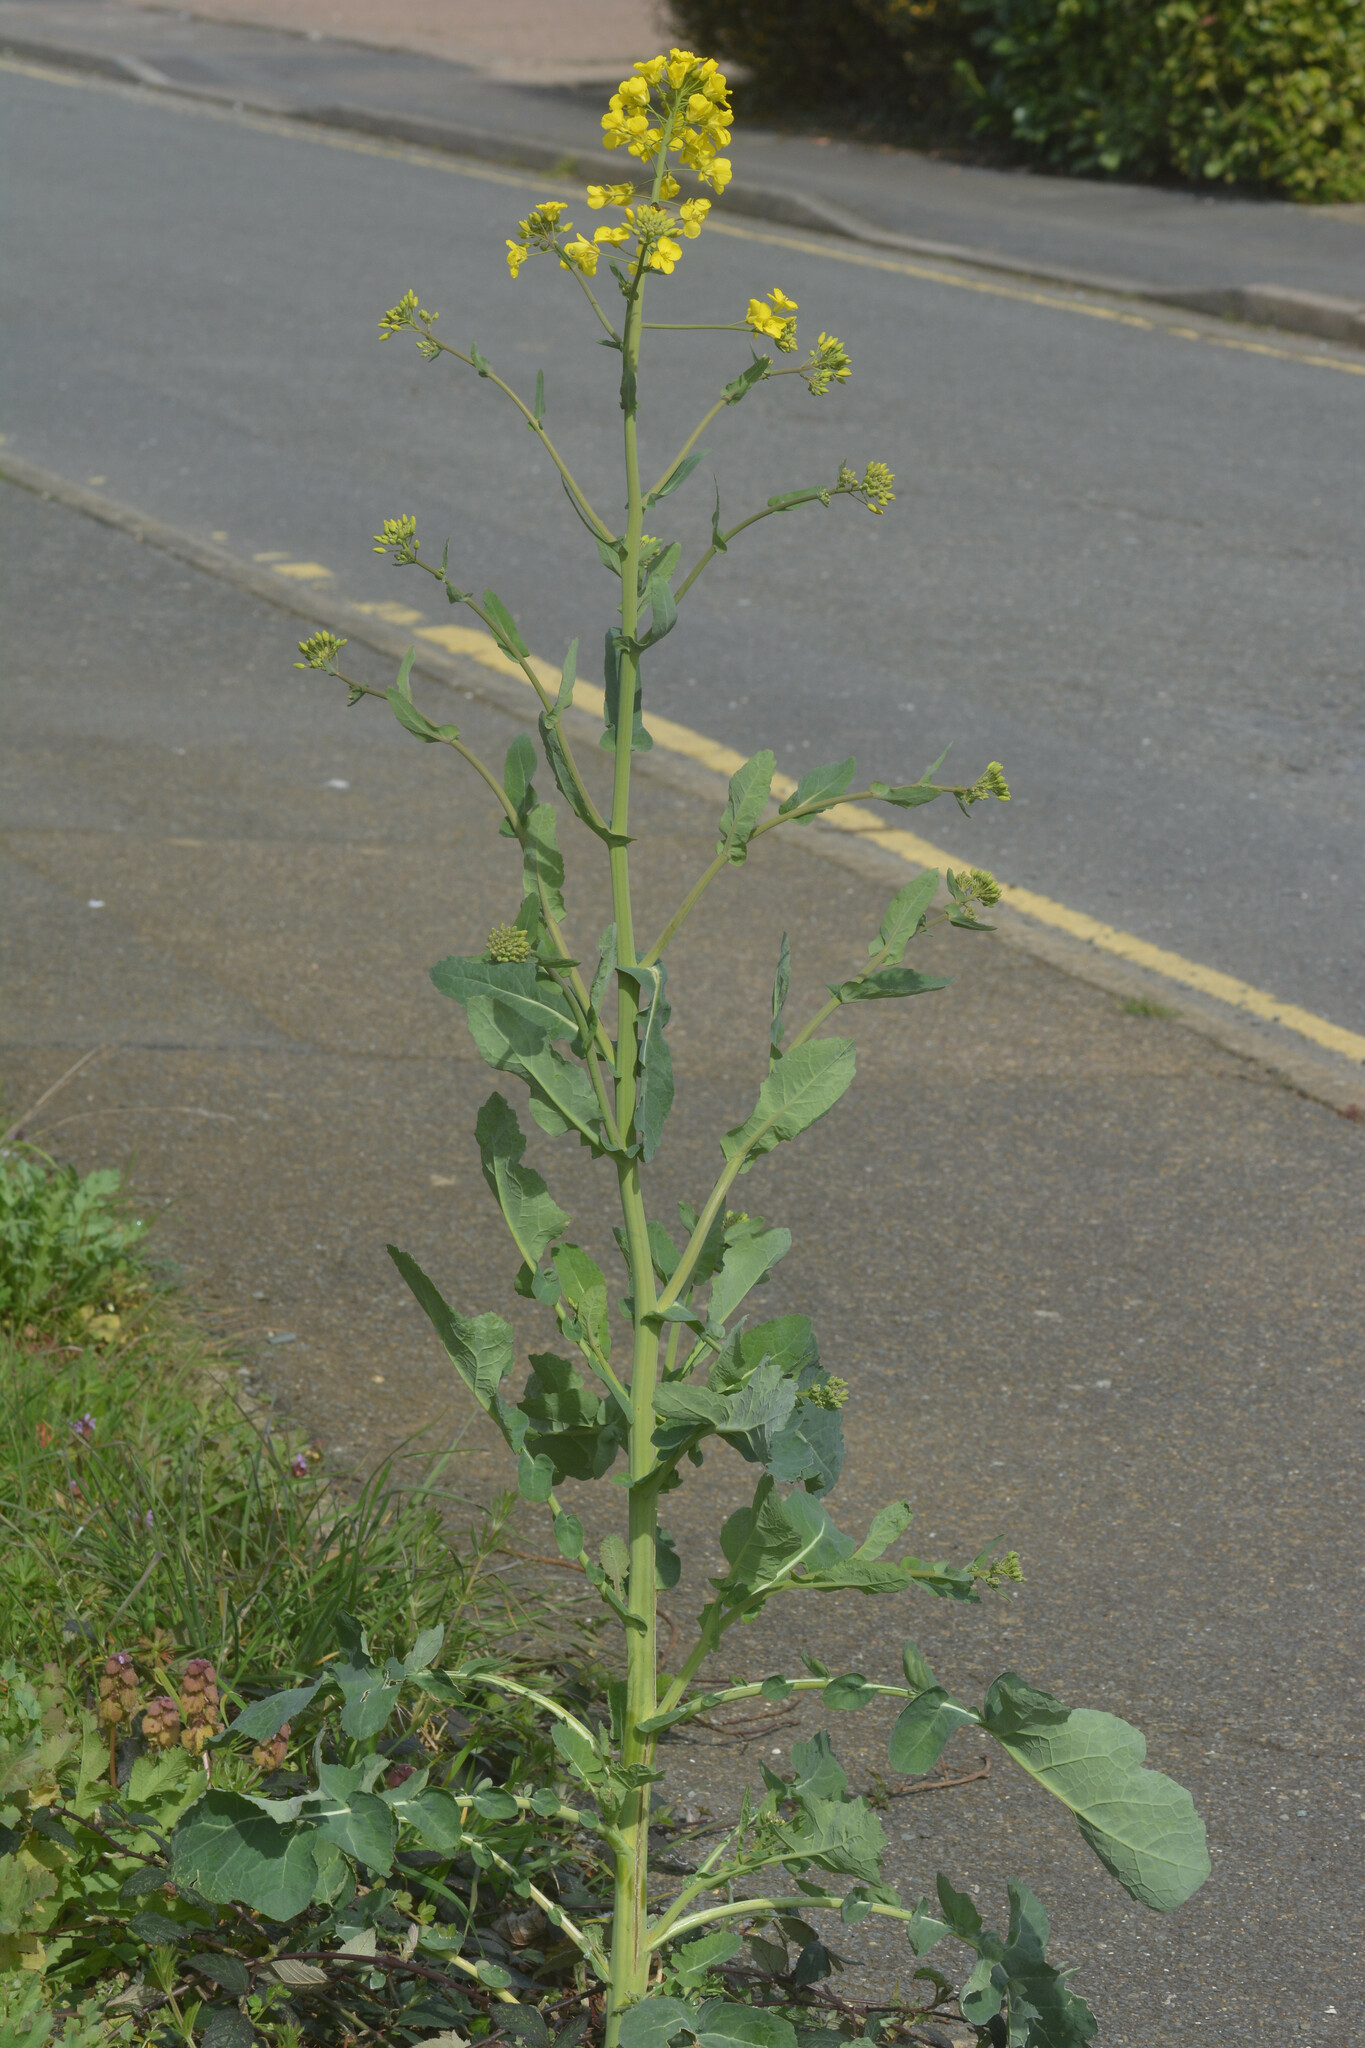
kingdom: Plantae
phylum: Tracheophyta
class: Magnoliopsida
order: Brassicales
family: Brassicaceae
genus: Brassica
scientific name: Brassica napus
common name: Rape
